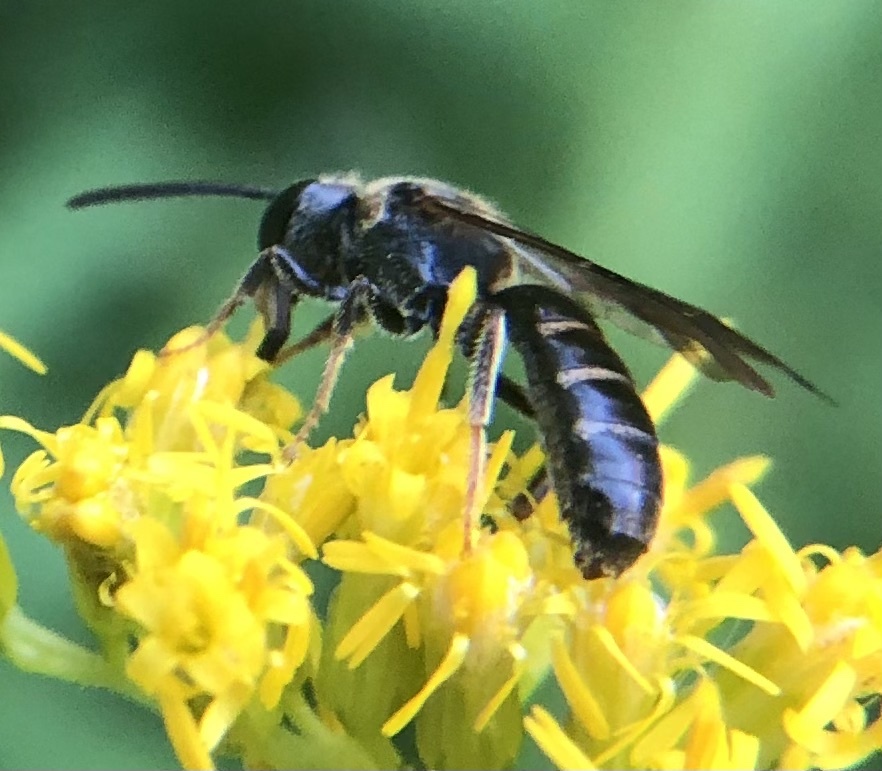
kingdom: Animalia
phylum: Arthropoda
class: Insecta
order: Hymenoptera
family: Halictidae
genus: Lasioglossum
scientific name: Lasioglossum fuscipenne
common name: Brown-winged sweat bee
